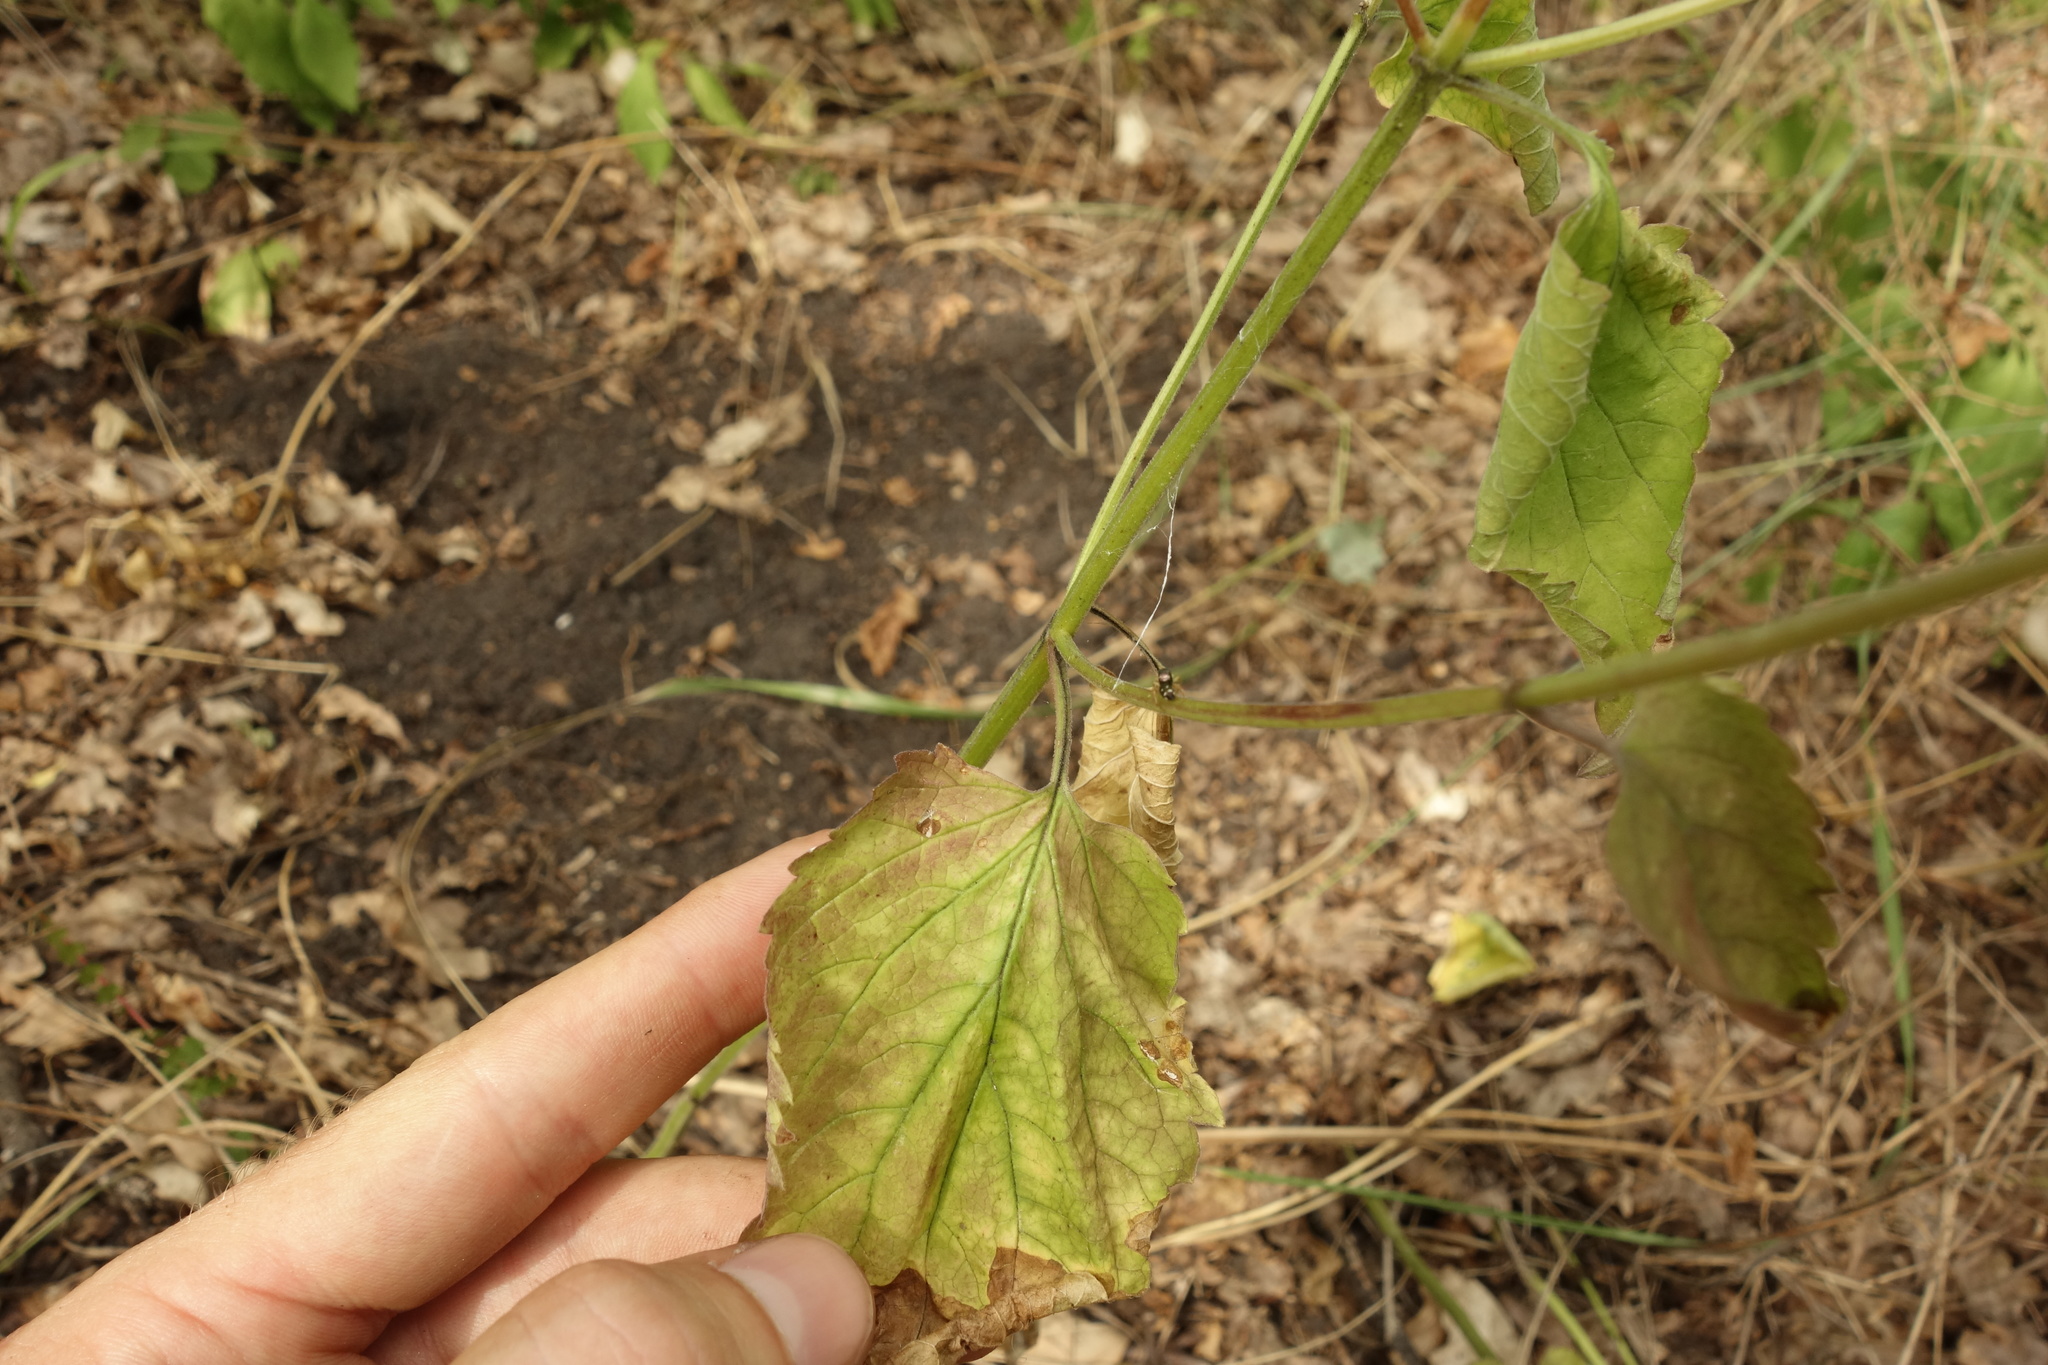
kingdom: Plantae
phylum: Tracheophyta
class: Magnoliopsida
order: Lamiales
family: Lamiaceae
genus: Scutellaria
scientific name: Scutellaria altissima
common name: Somerset skullcap
